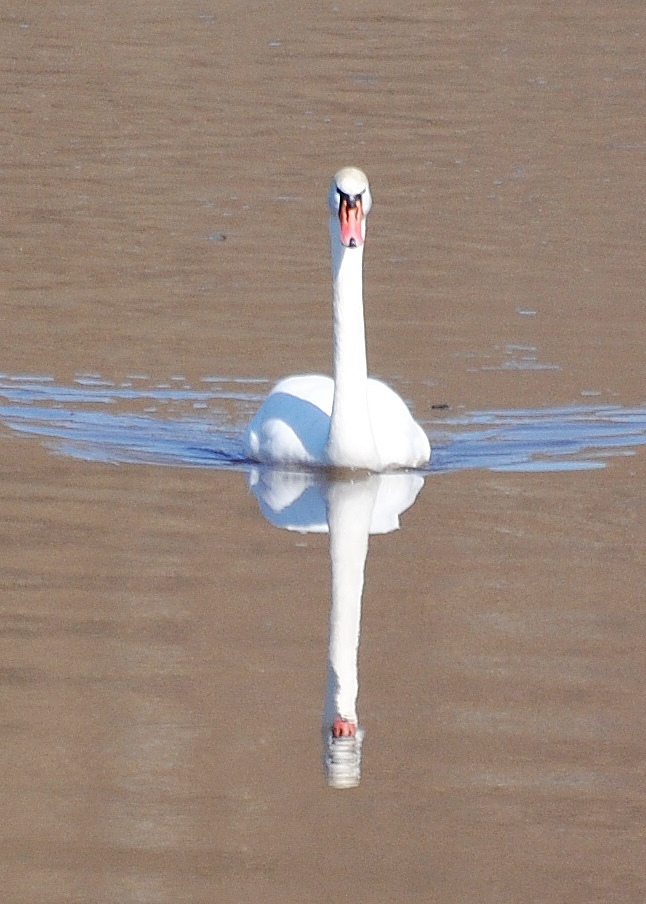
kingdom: Animalia
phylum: Chordata
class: Aves
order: Anseriformes
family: Anatidae
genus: Cygnus
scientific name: Cygnus olor
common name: Mute swan
